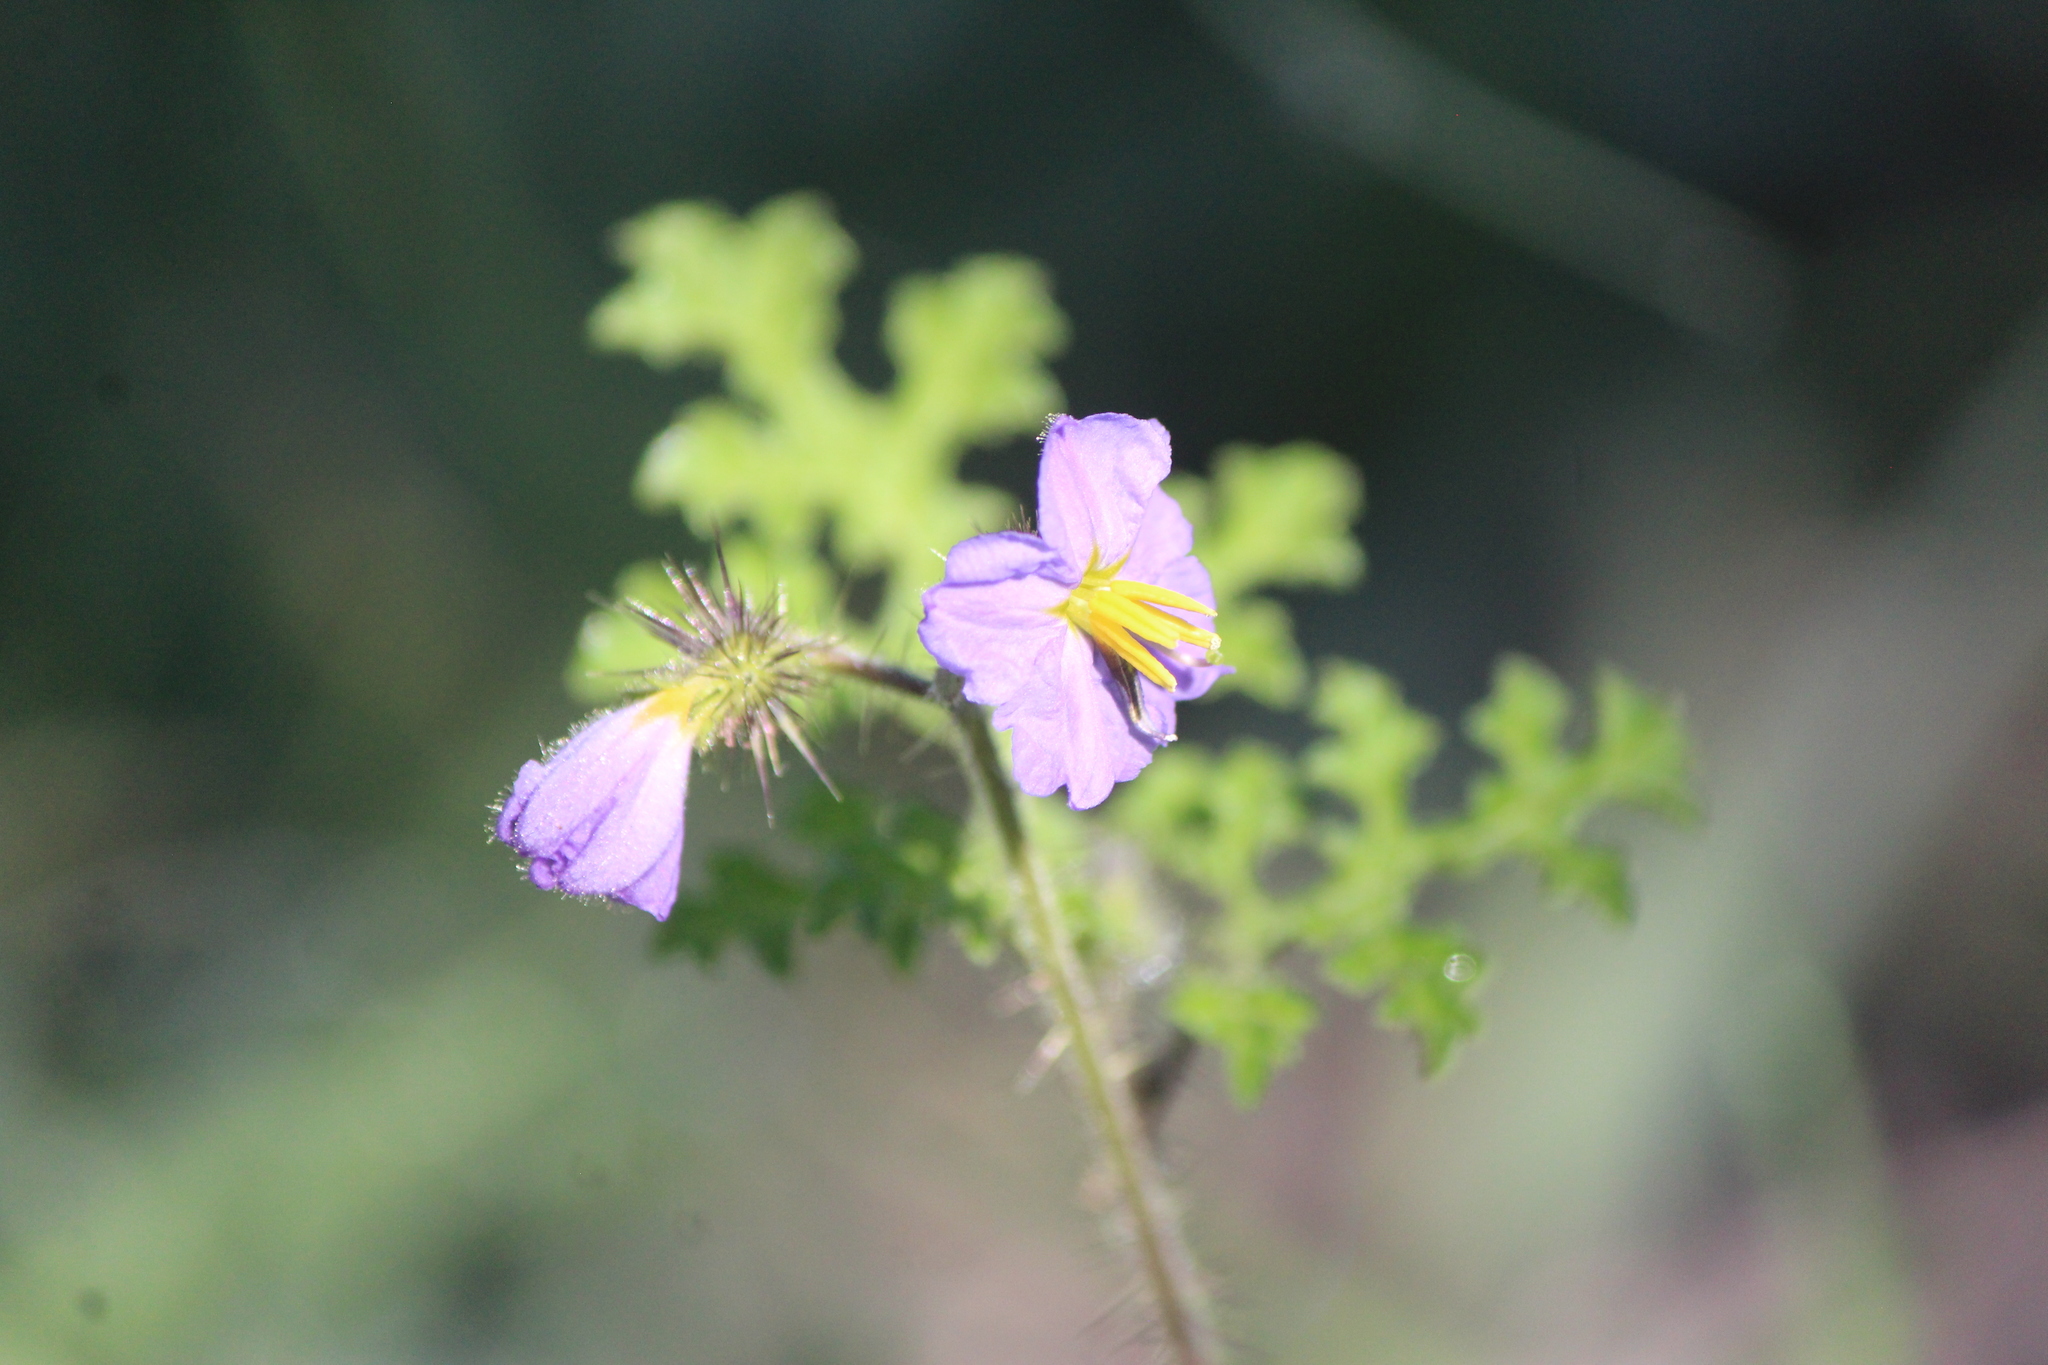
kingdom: Plantae
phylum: Tracheophyta
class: Magnoliopsida
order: Solanales
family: Solanaceae
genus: Solanum
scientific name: Solanum heterodoxum
